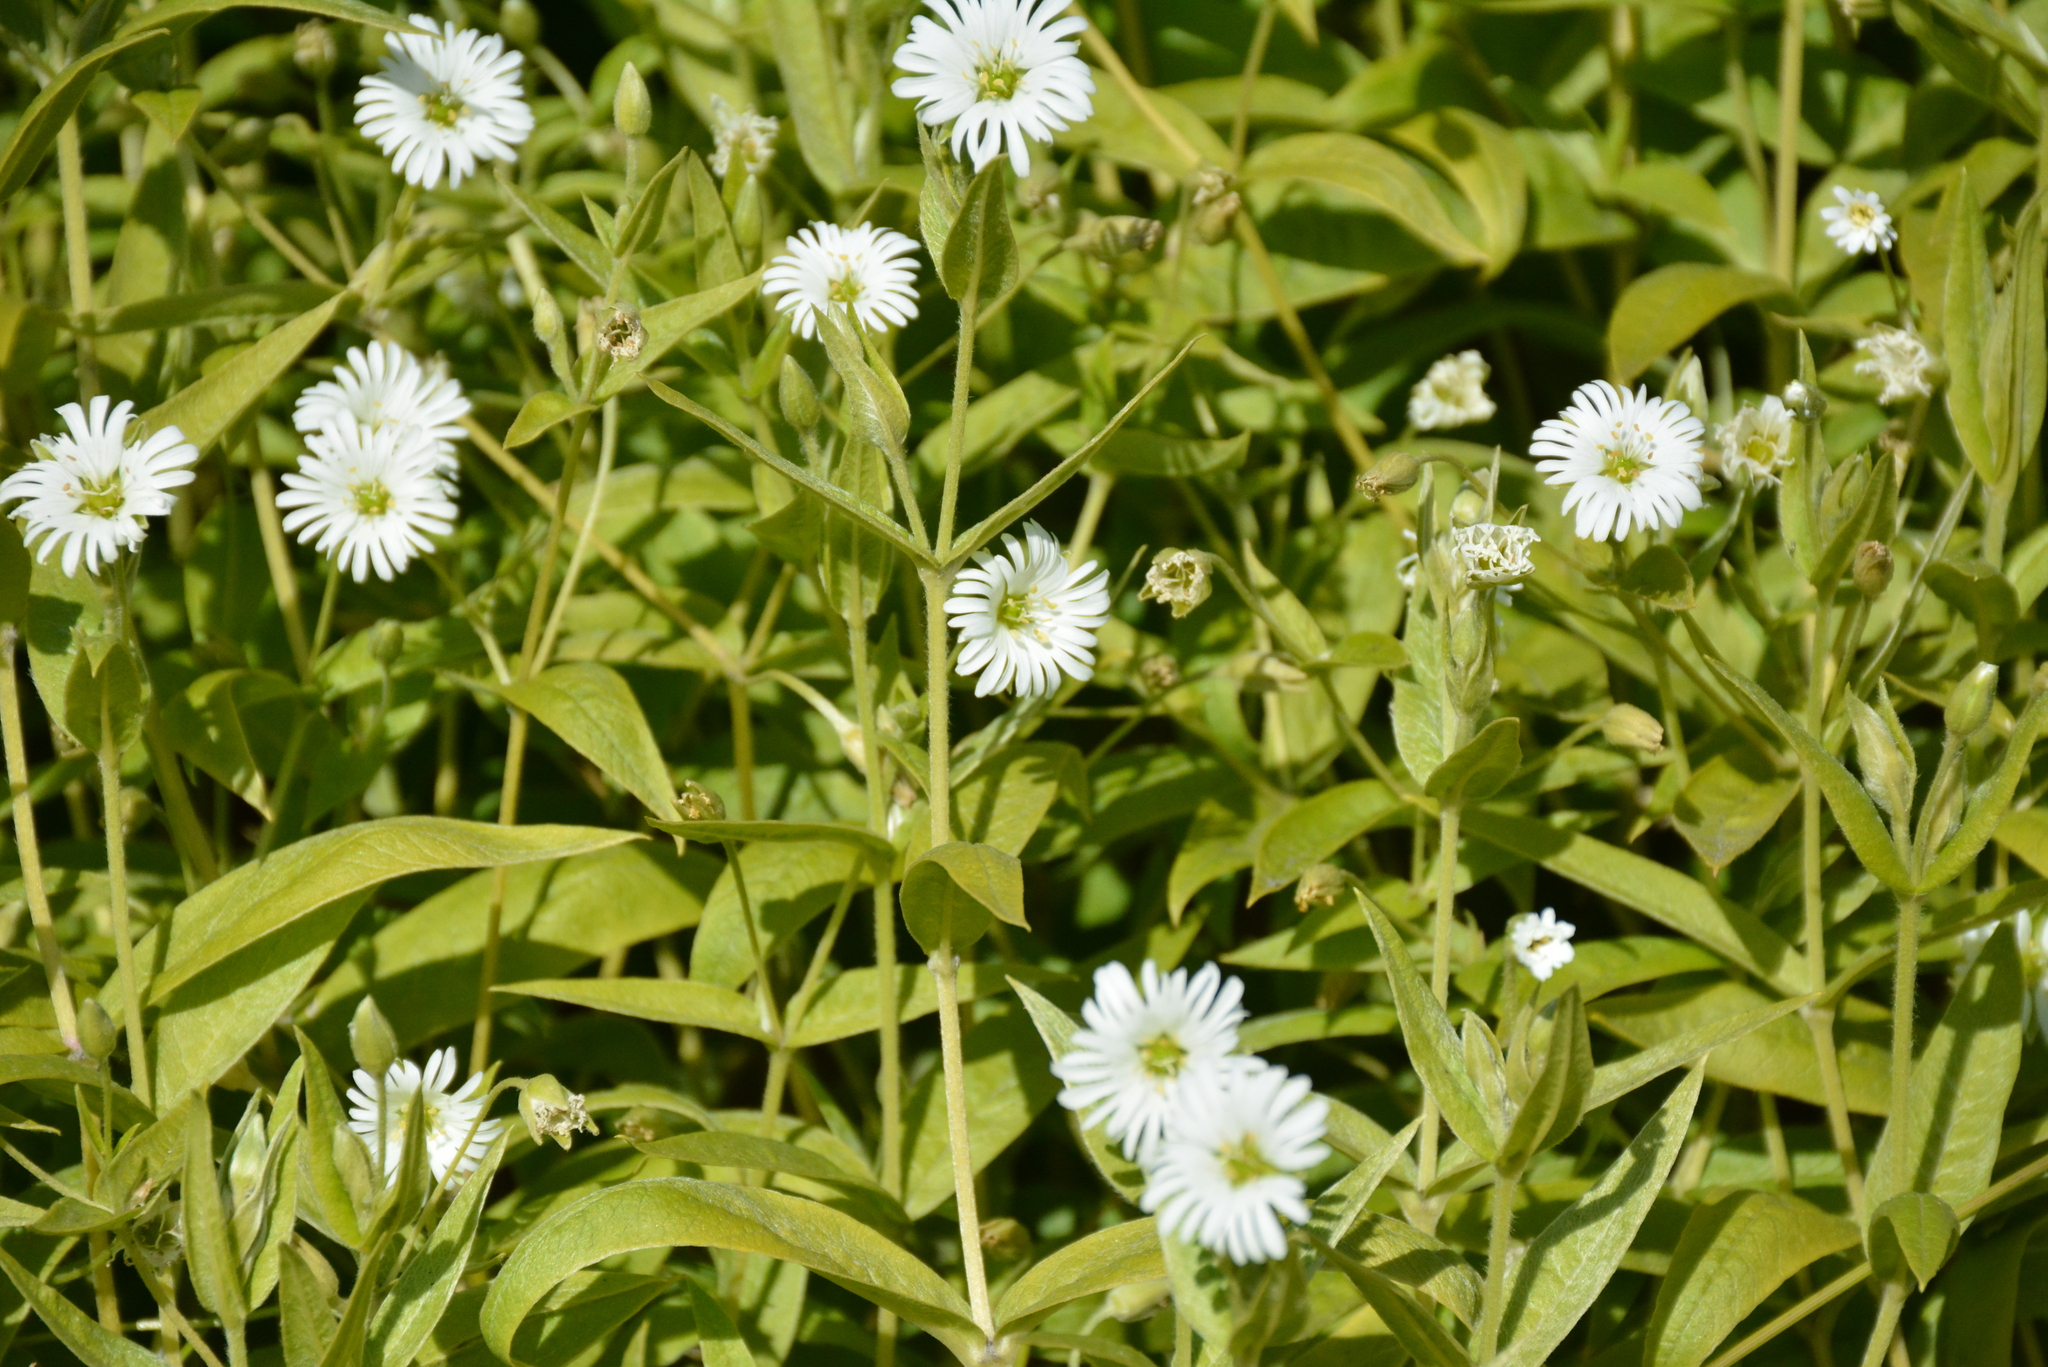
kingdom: Plantae
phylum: Tracheophyta
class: Magnoliopsida
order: Caryophyllales
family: Caryophyllaceae
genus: Stellaria
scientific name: Stellaria radians
